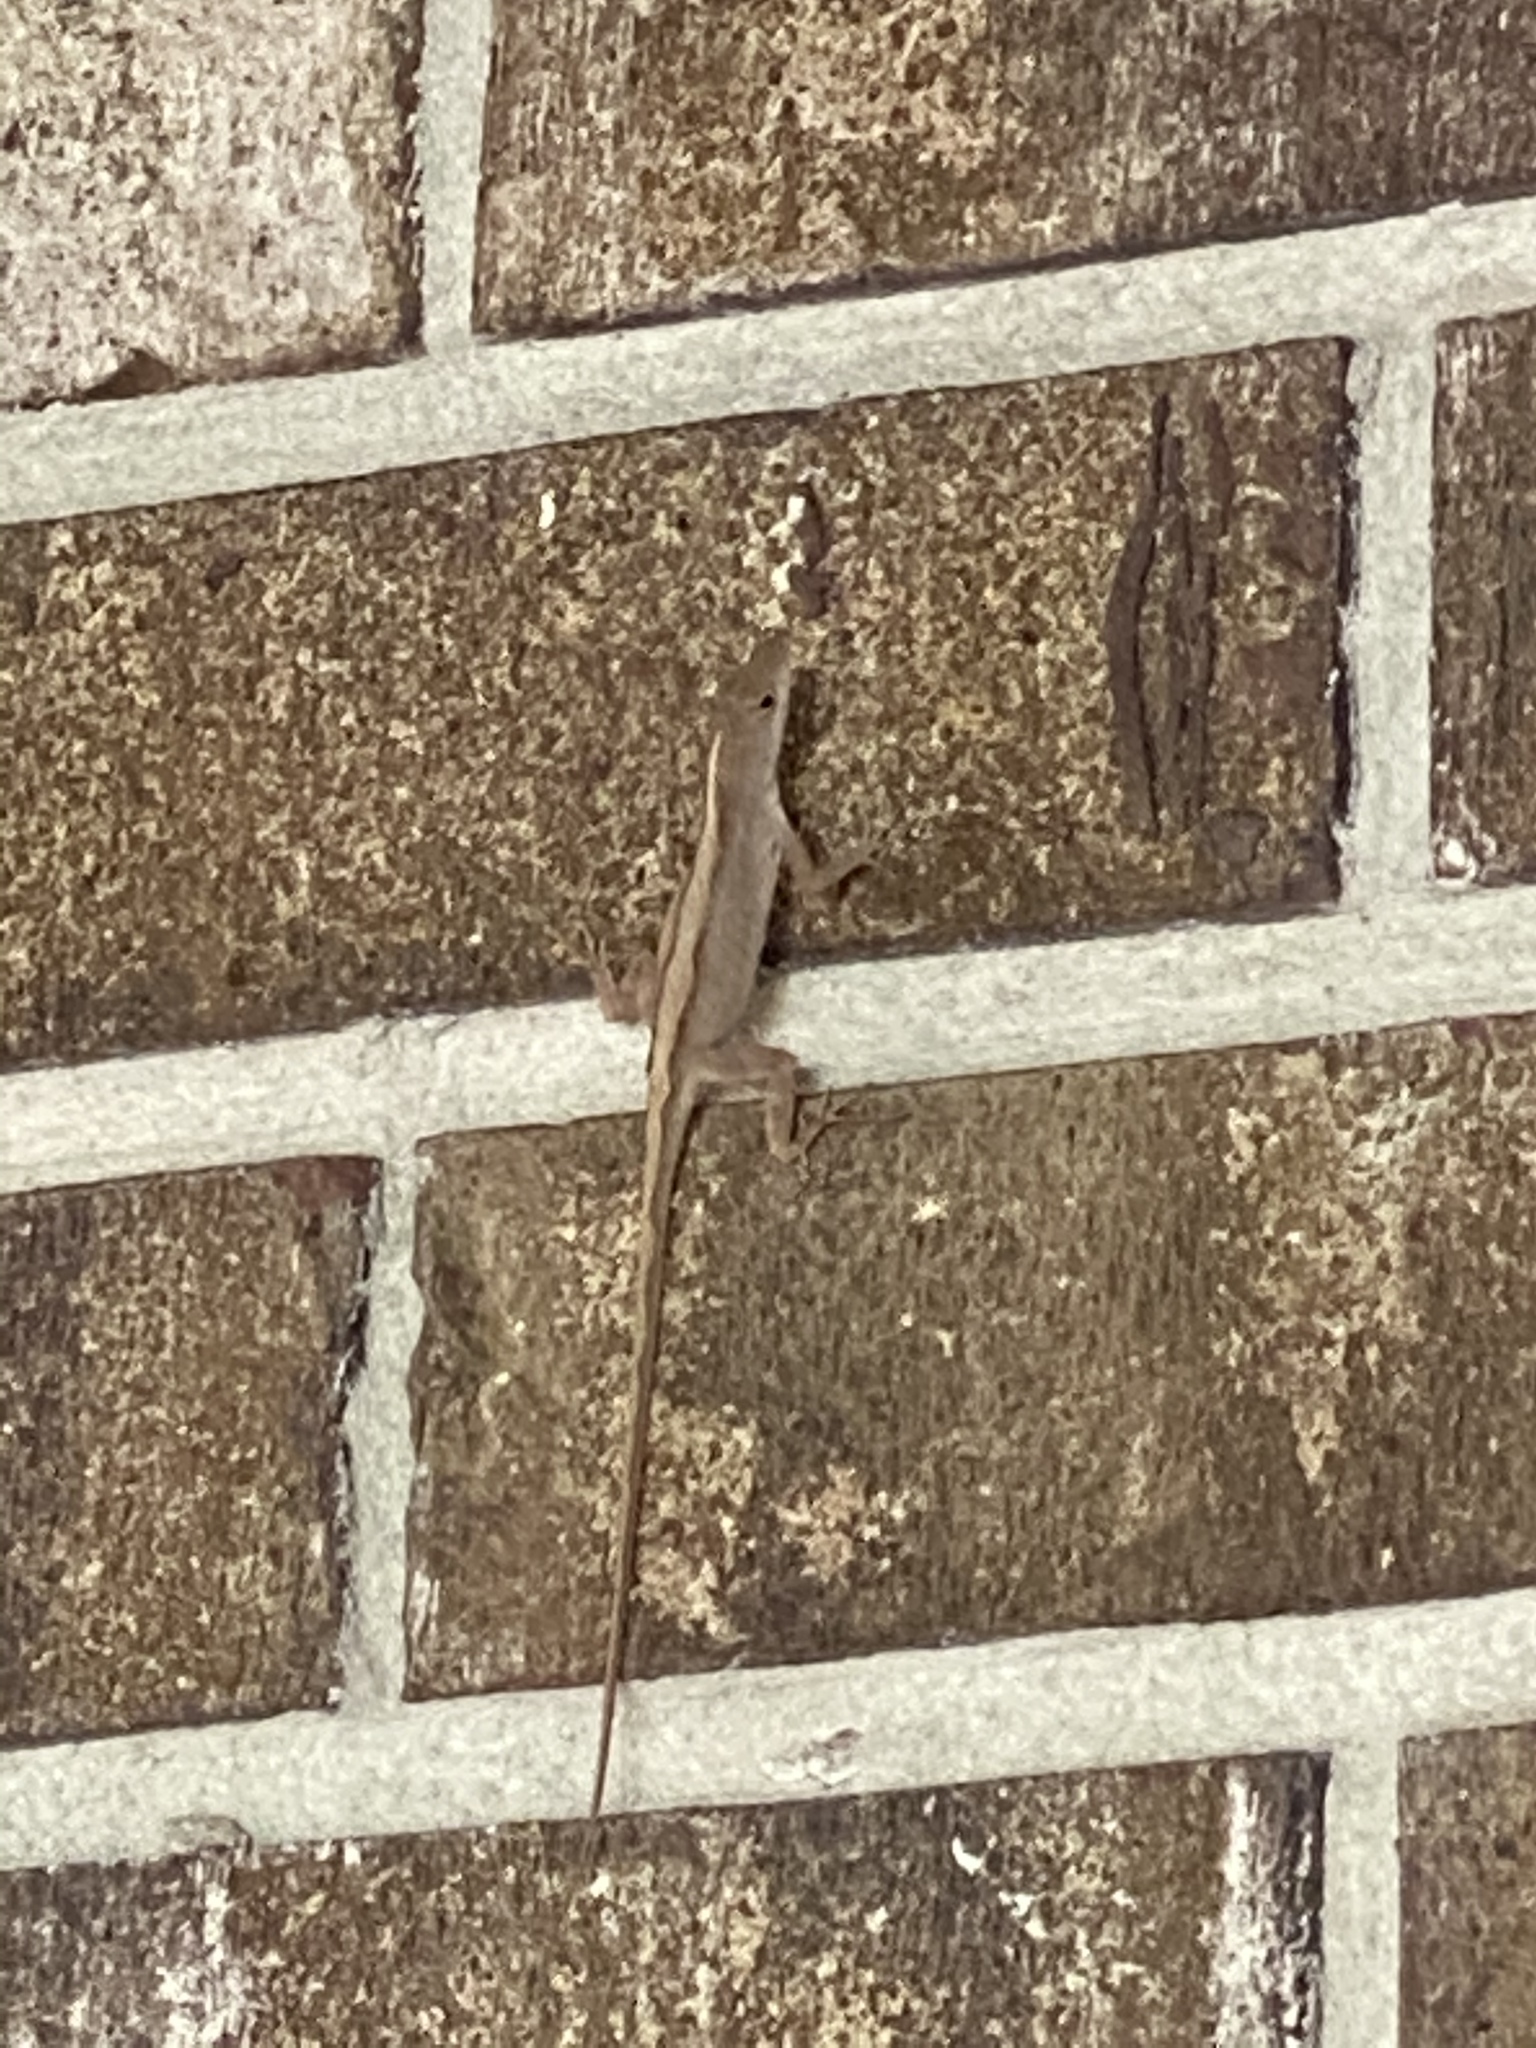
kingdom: Animalia
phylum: Chordata
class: Squamata
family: Dactyloidae
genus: Anolis
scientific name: Anolis sagrei
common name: Brown anole
